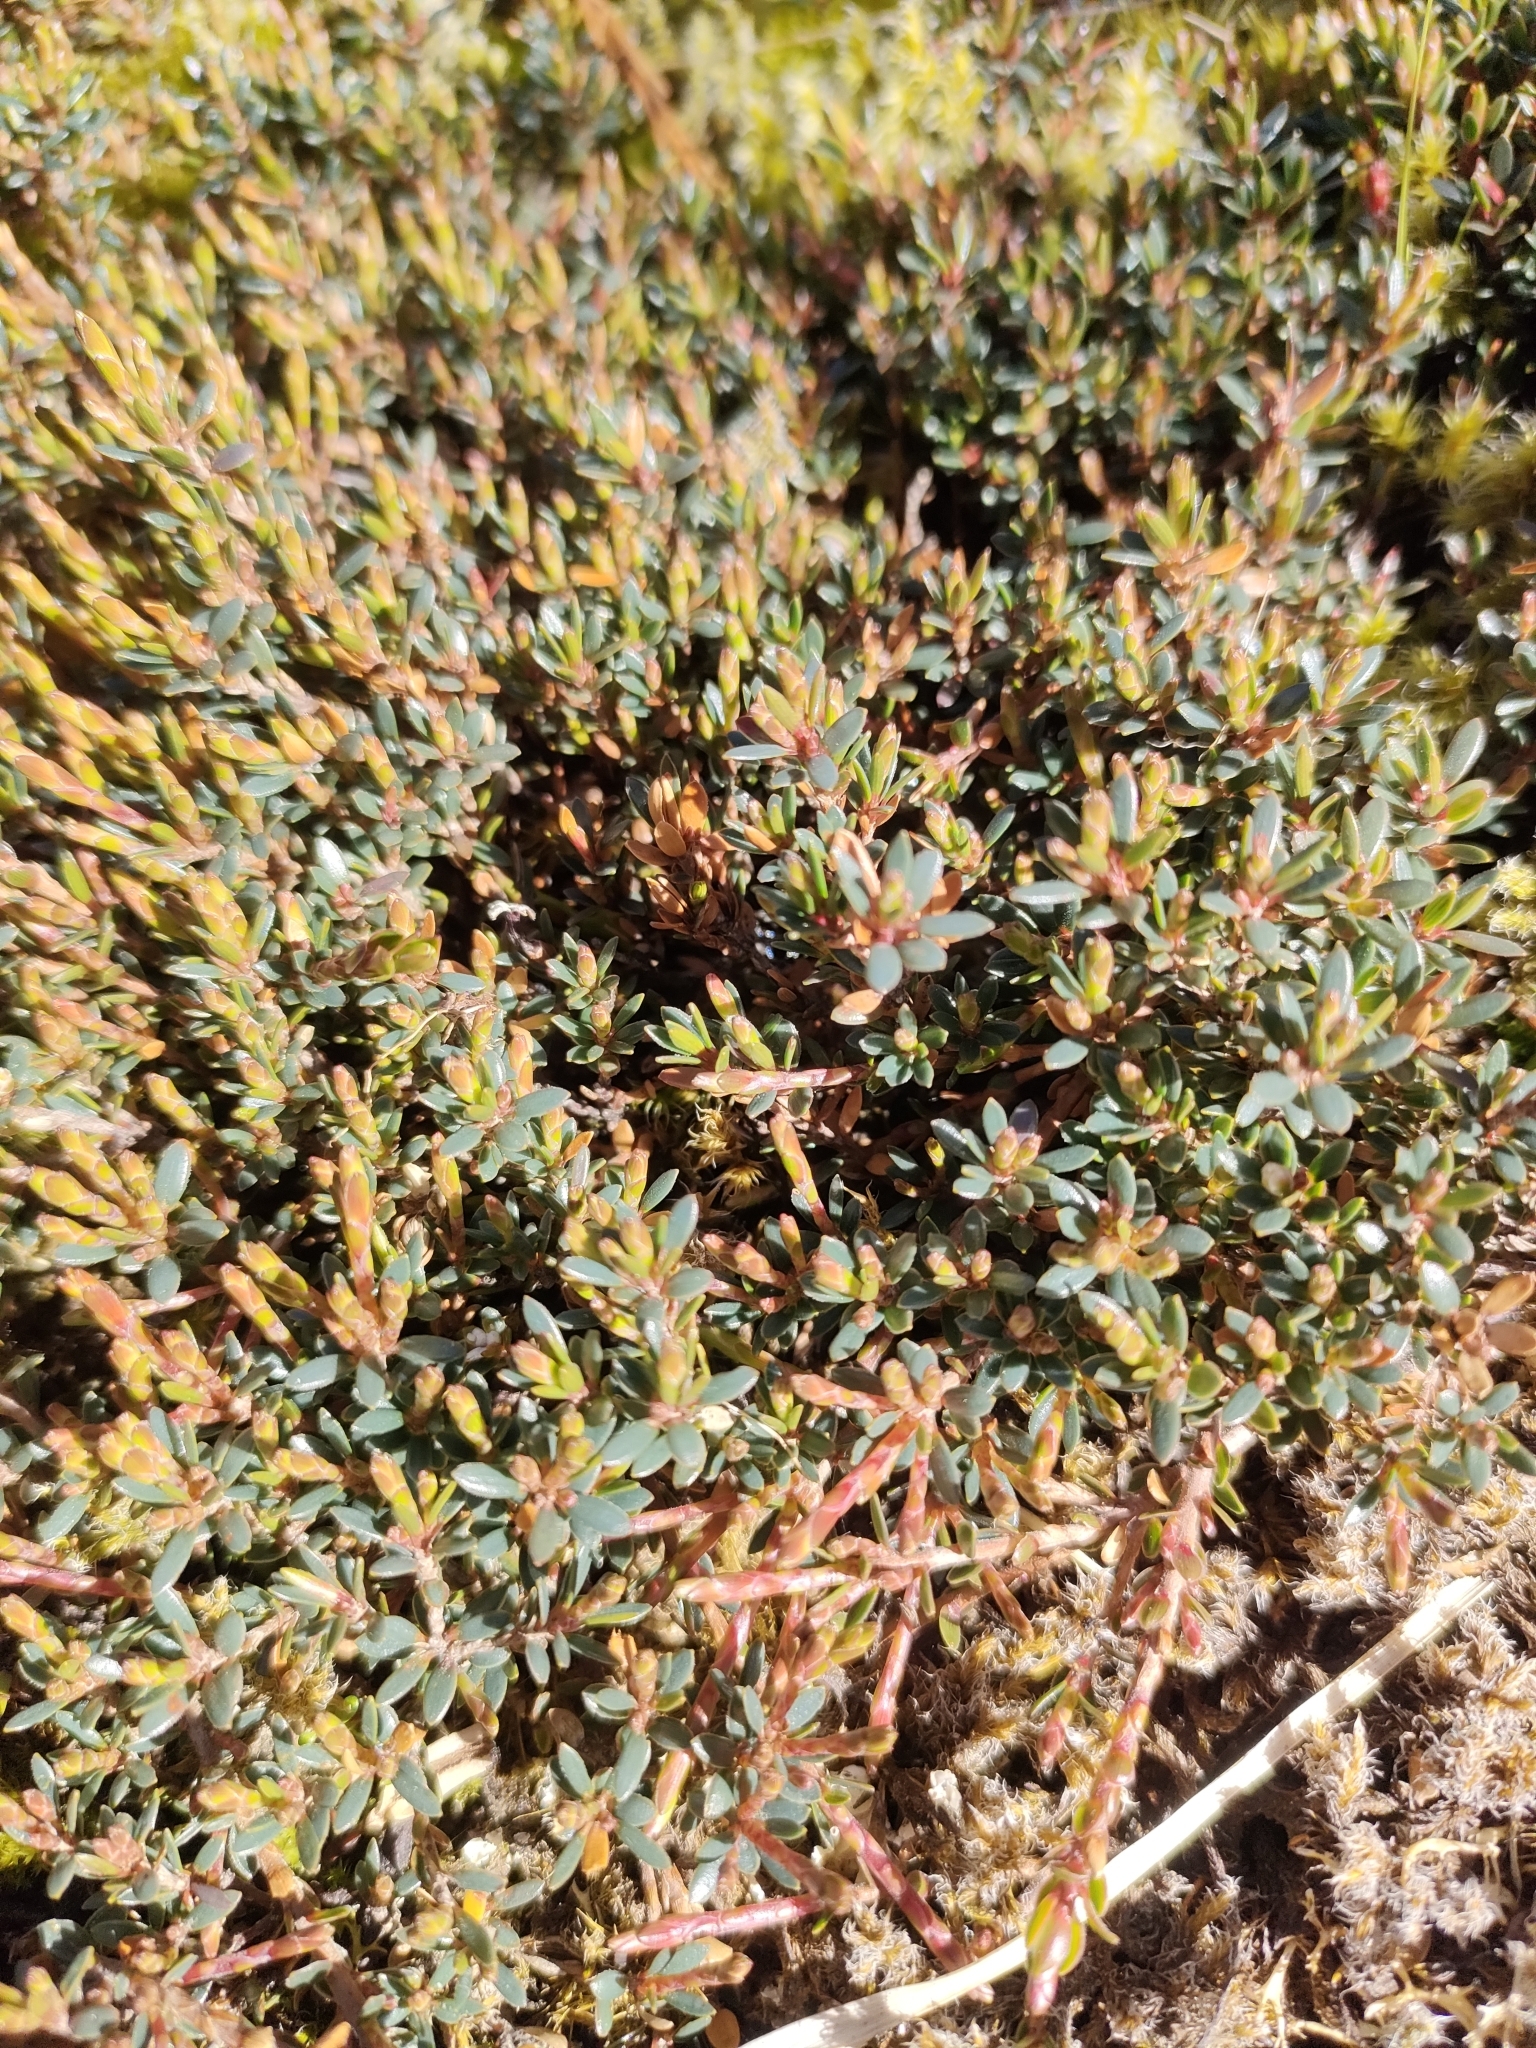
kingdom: Plantae
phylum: Tracheophyta
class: Magnoliopsida
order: Ericales
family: Ericaceae
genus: Pentachondra
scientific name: Pentachondra pumila
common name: Carpet-heath
